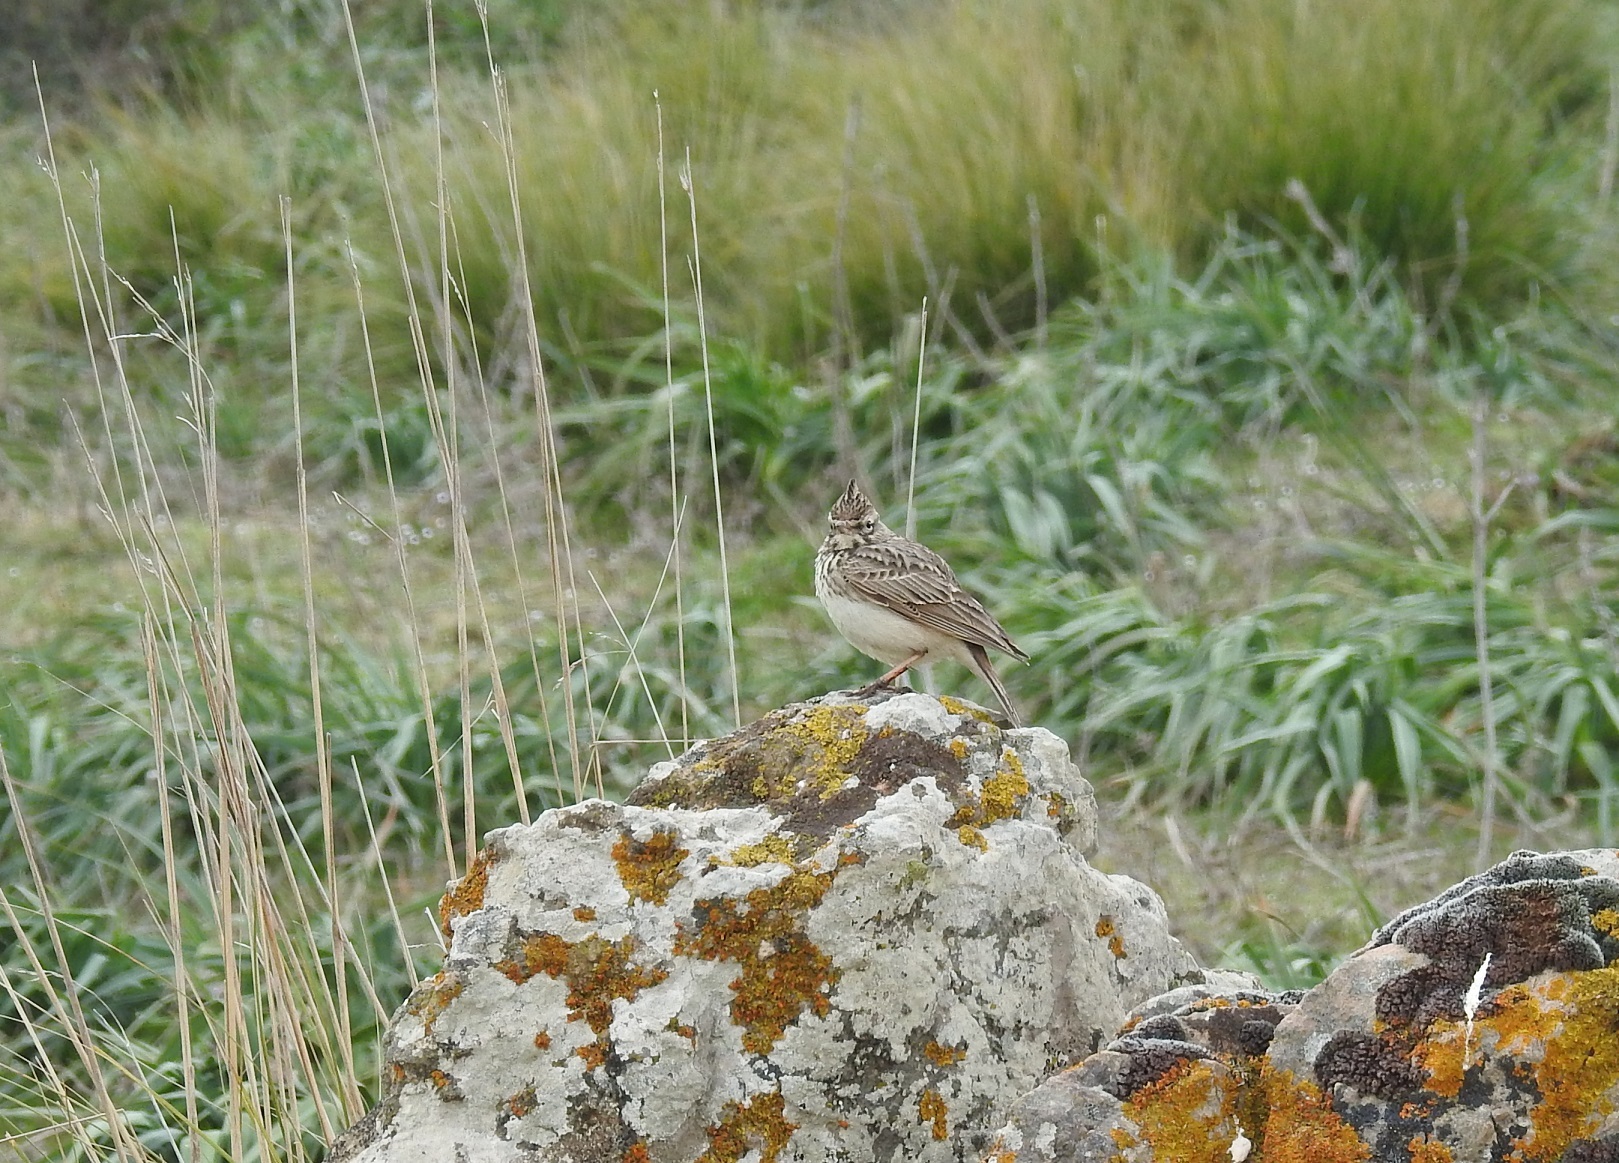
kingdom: Animalia
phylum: Chordata
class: Aves
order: Passeriformes
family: Alaudidae
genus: Galerida
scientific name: Galerida theklae
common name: Thekla lark
